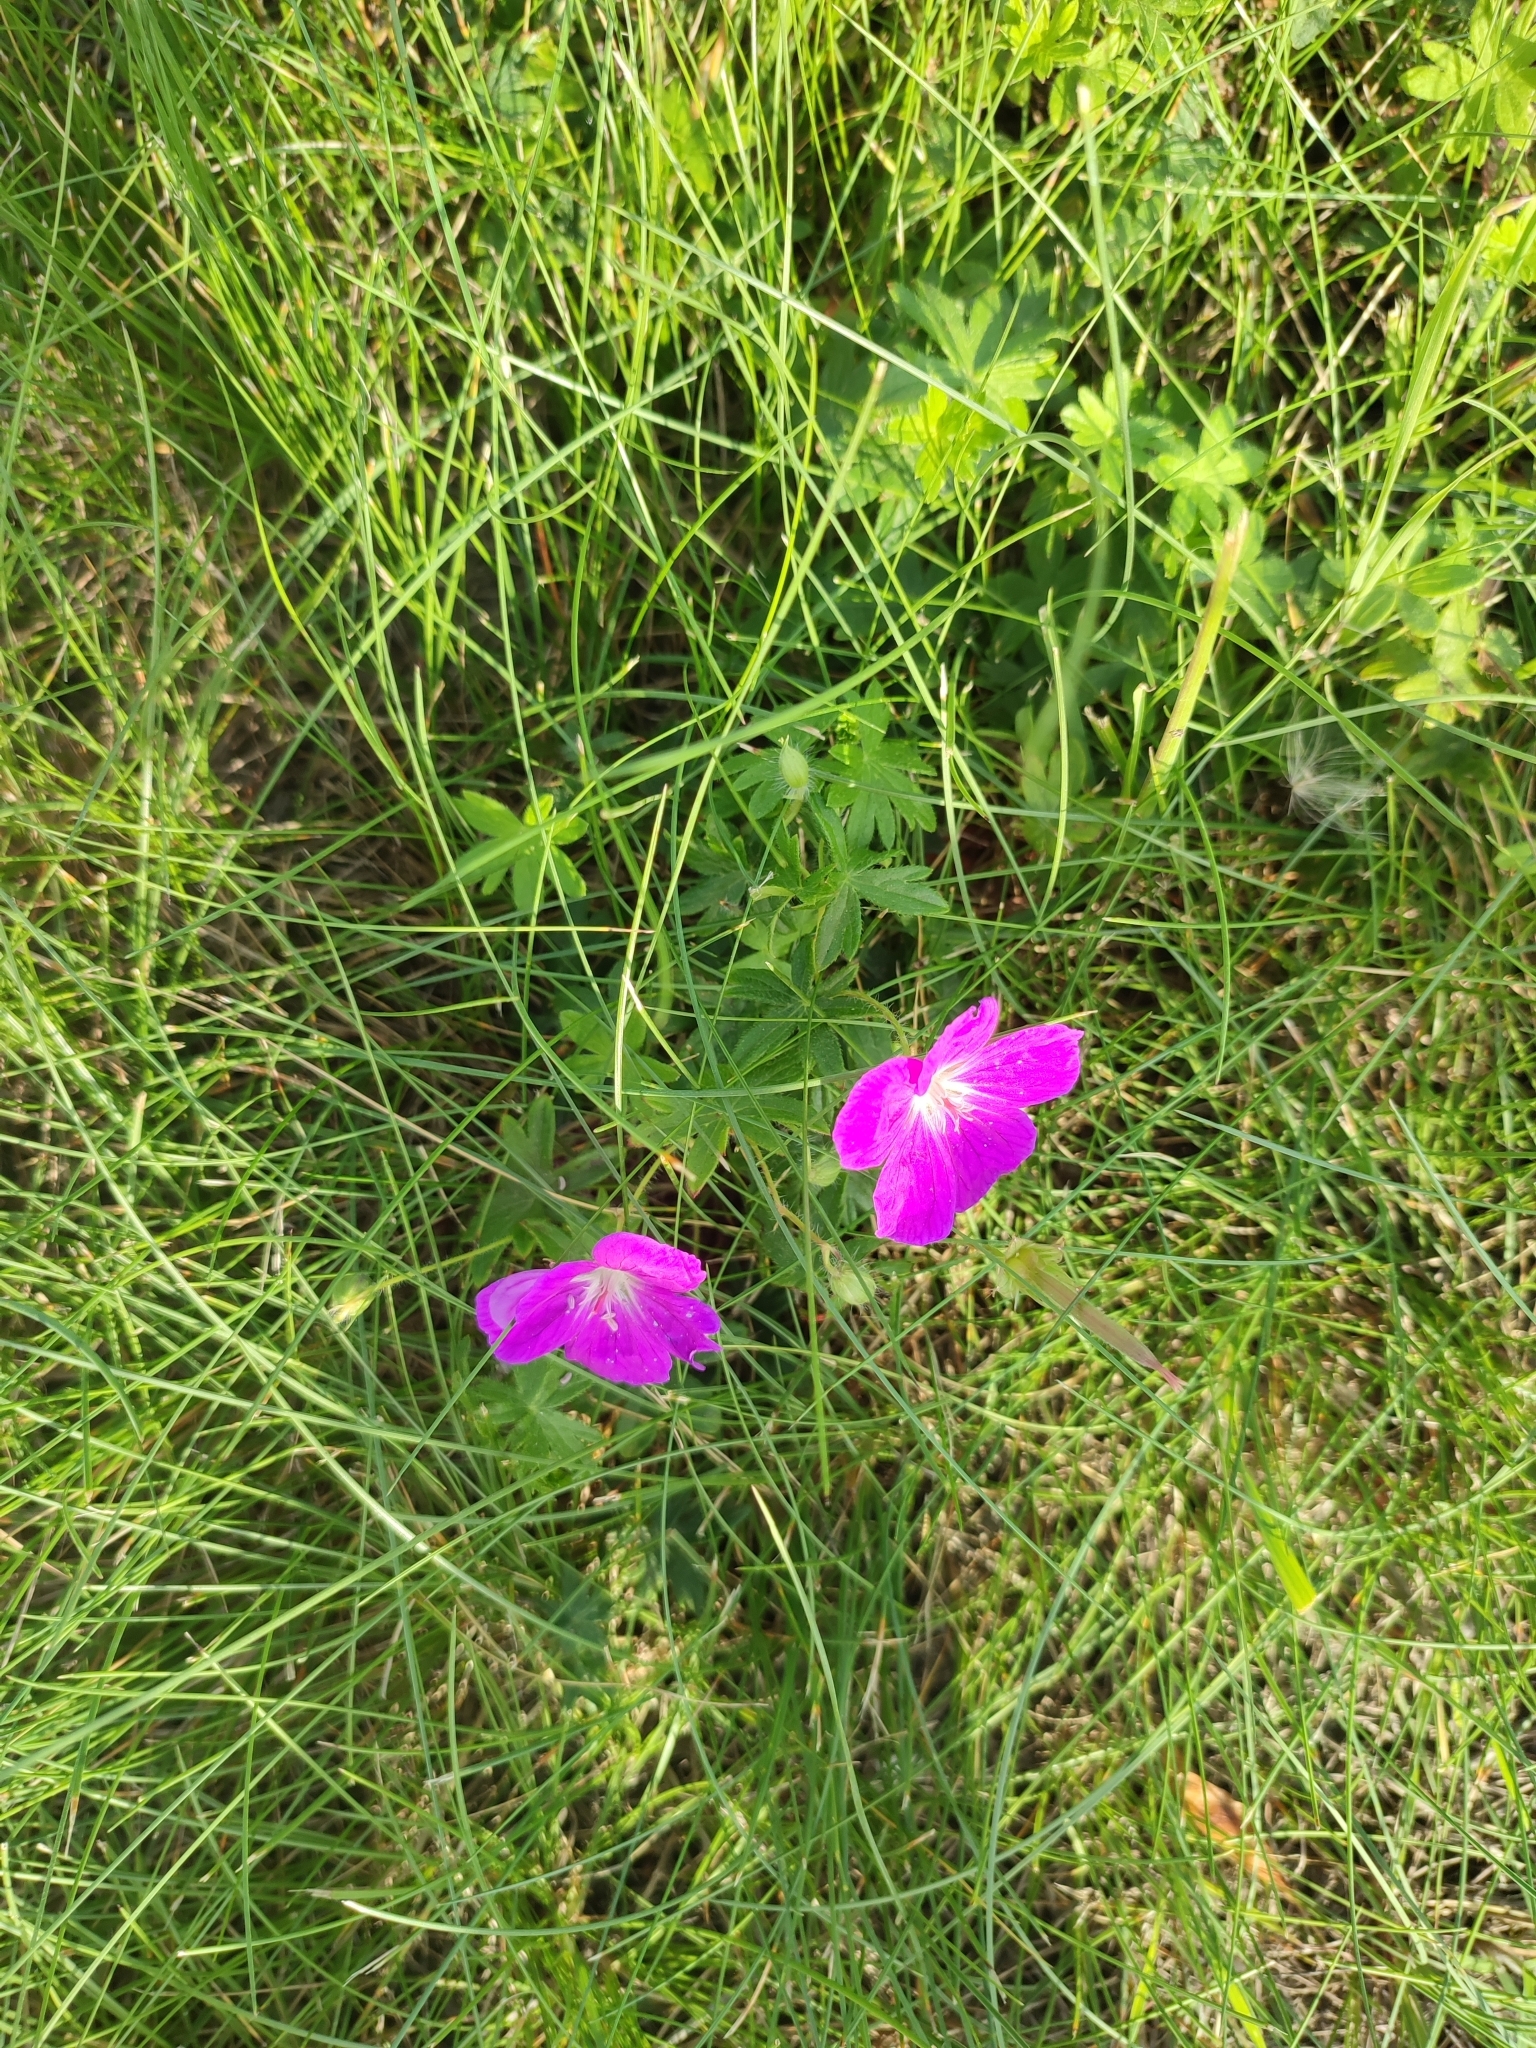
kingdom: Plantae
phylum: Tracheophyta
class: Magnoliopsida
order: Geraniales
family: Geraniaceae
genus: Geranium
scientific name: Geranium sanguineum
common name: Bloody crane's-bill
